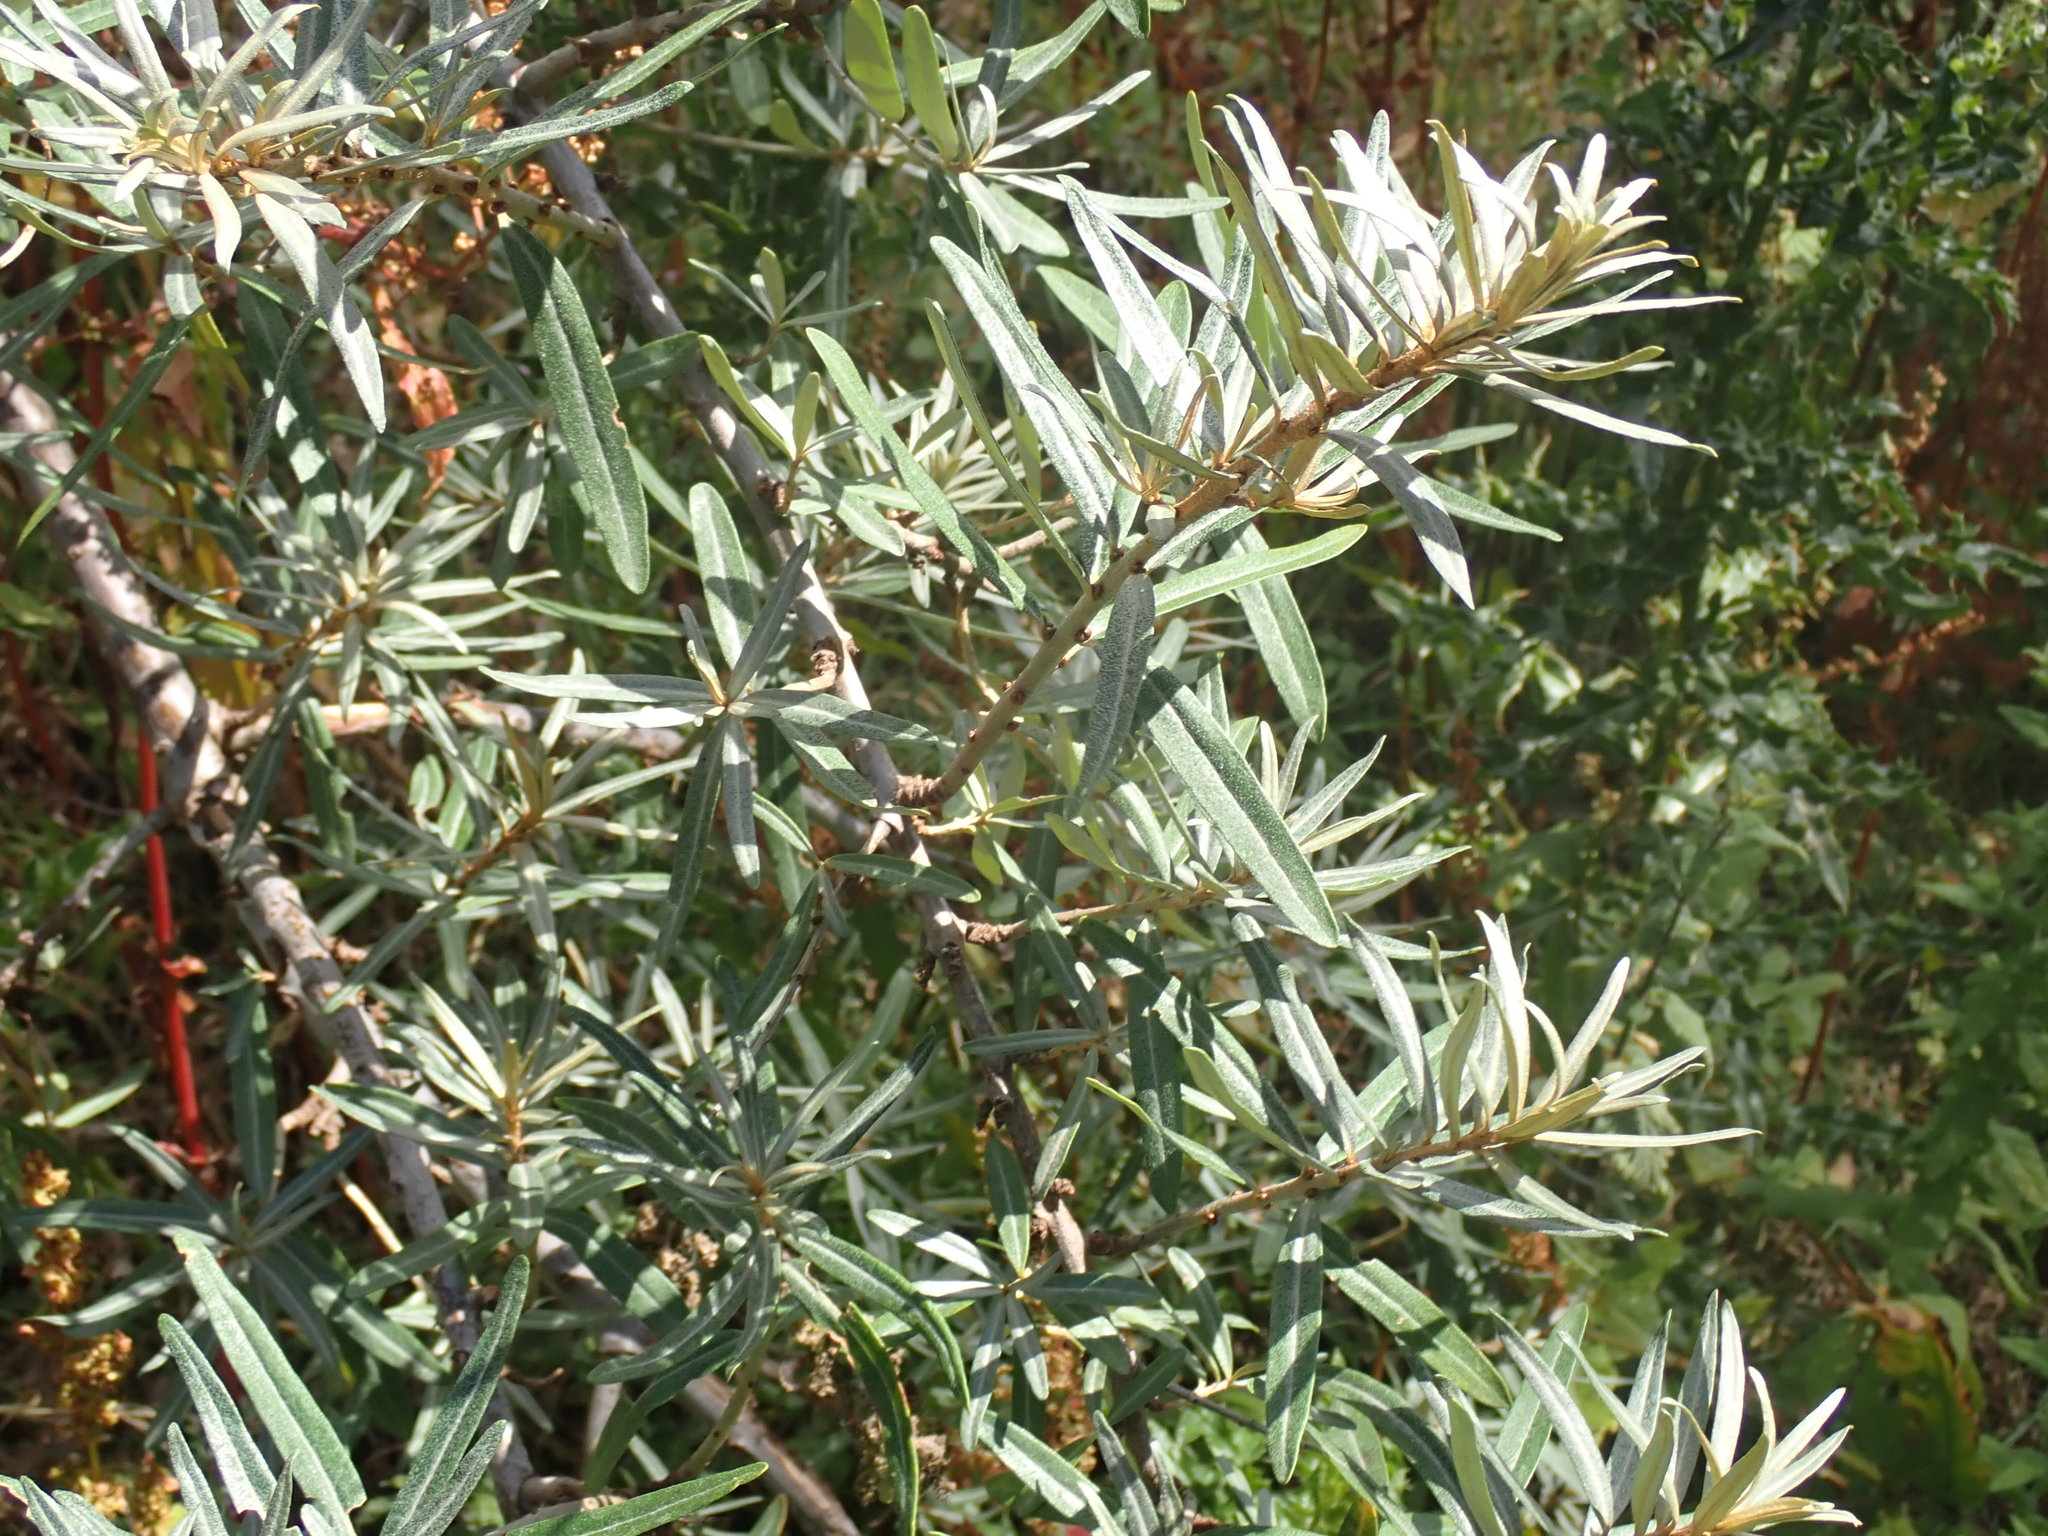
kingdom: Plantae
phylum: Tracheophyta
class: Magnoliopsida
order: Rosales
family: Elaeagnaceae
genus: Hippophae
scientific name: Hippophae rhamnoides
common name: Sea-buckthorn
